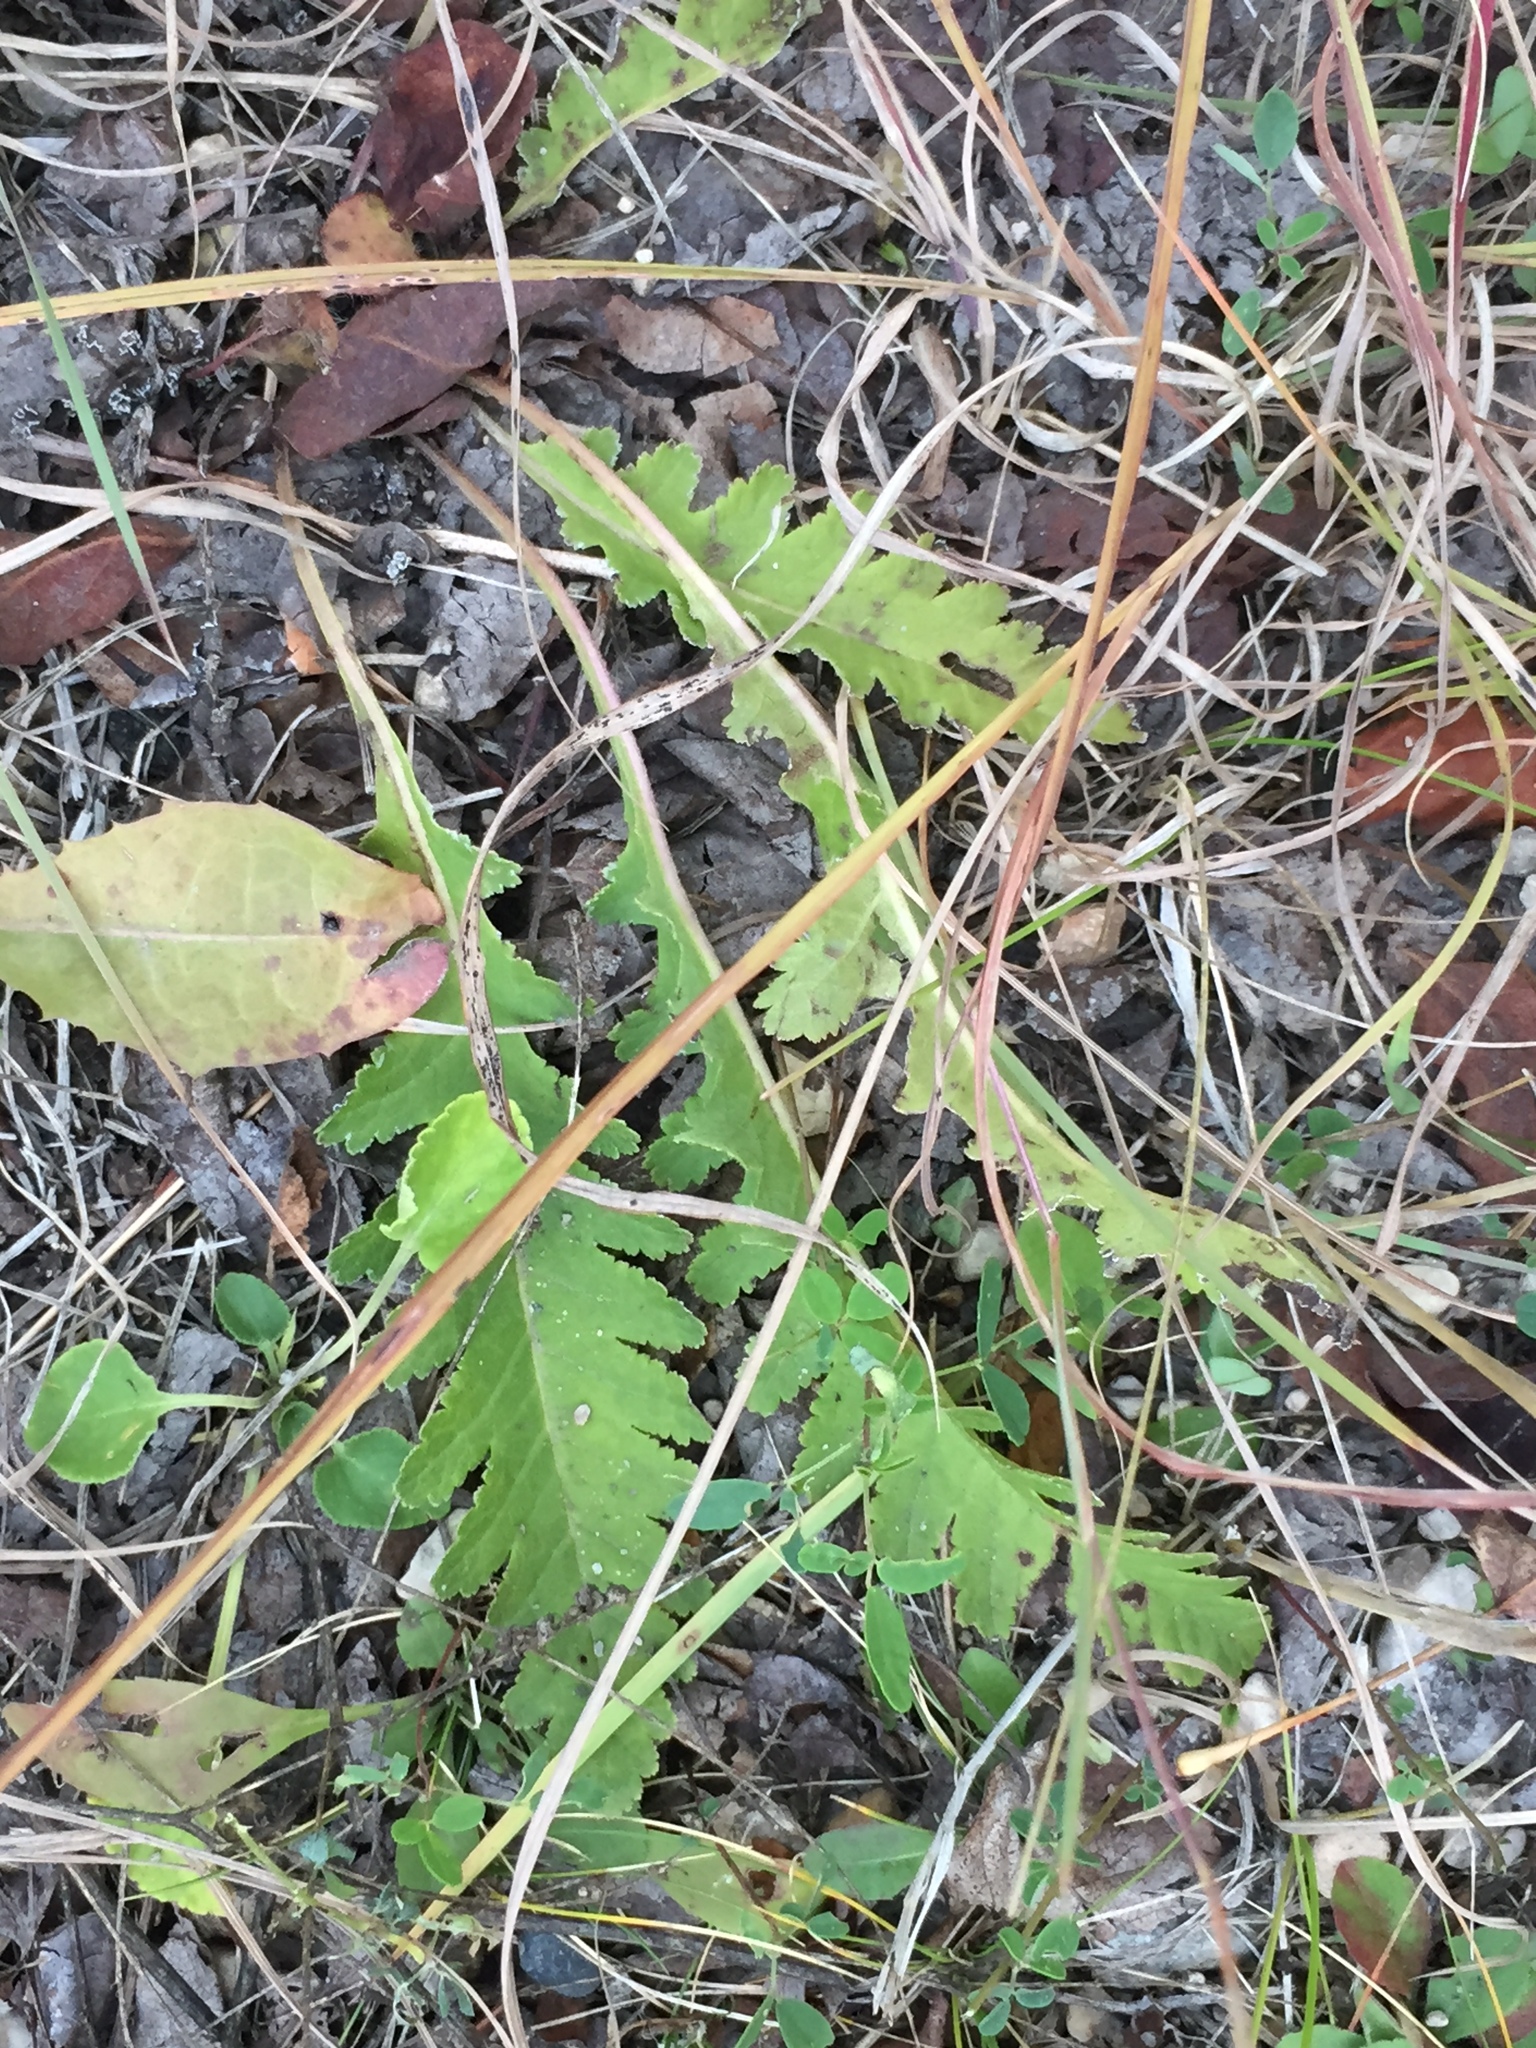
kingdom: Plantae
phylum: Tracheophyta
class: Magnoliopsida
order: Lamiales
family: Orobanchaceae
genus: Pedicularis
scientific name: Pedicularis canadensis
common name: Early lousewort
